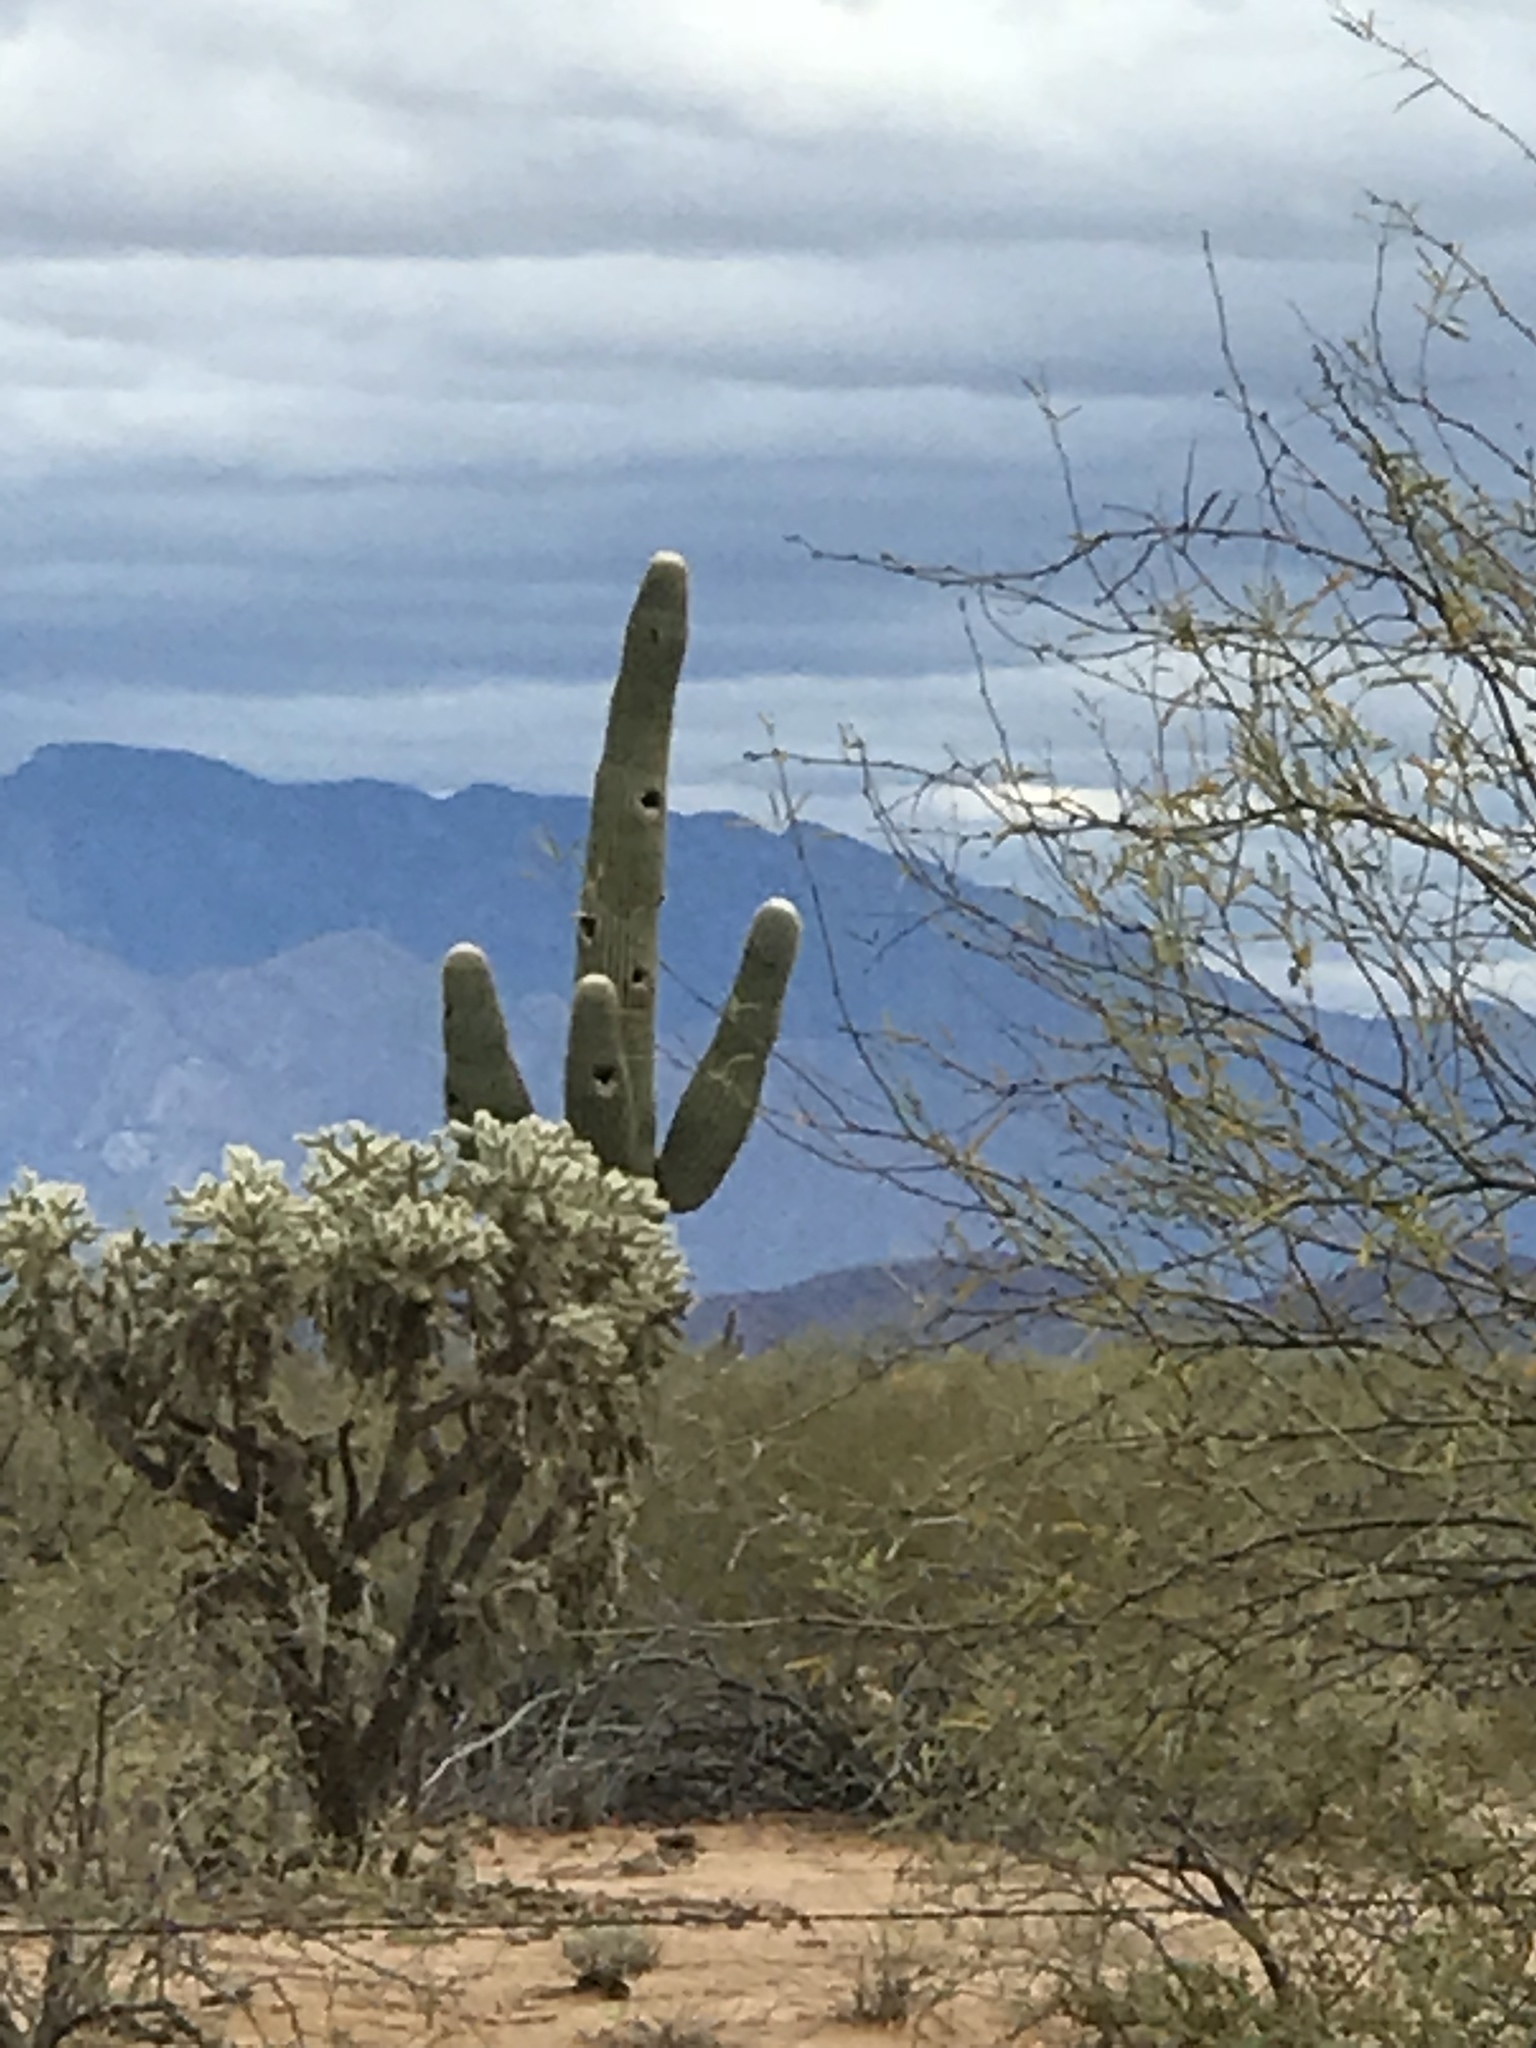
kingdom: Plantae
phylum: Tracheophyta
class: Magnoliopsida
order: Caryophyllales
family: Cactaceae
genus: Carnegiea
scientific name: Carnegiea gigantea
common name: Saguaro
